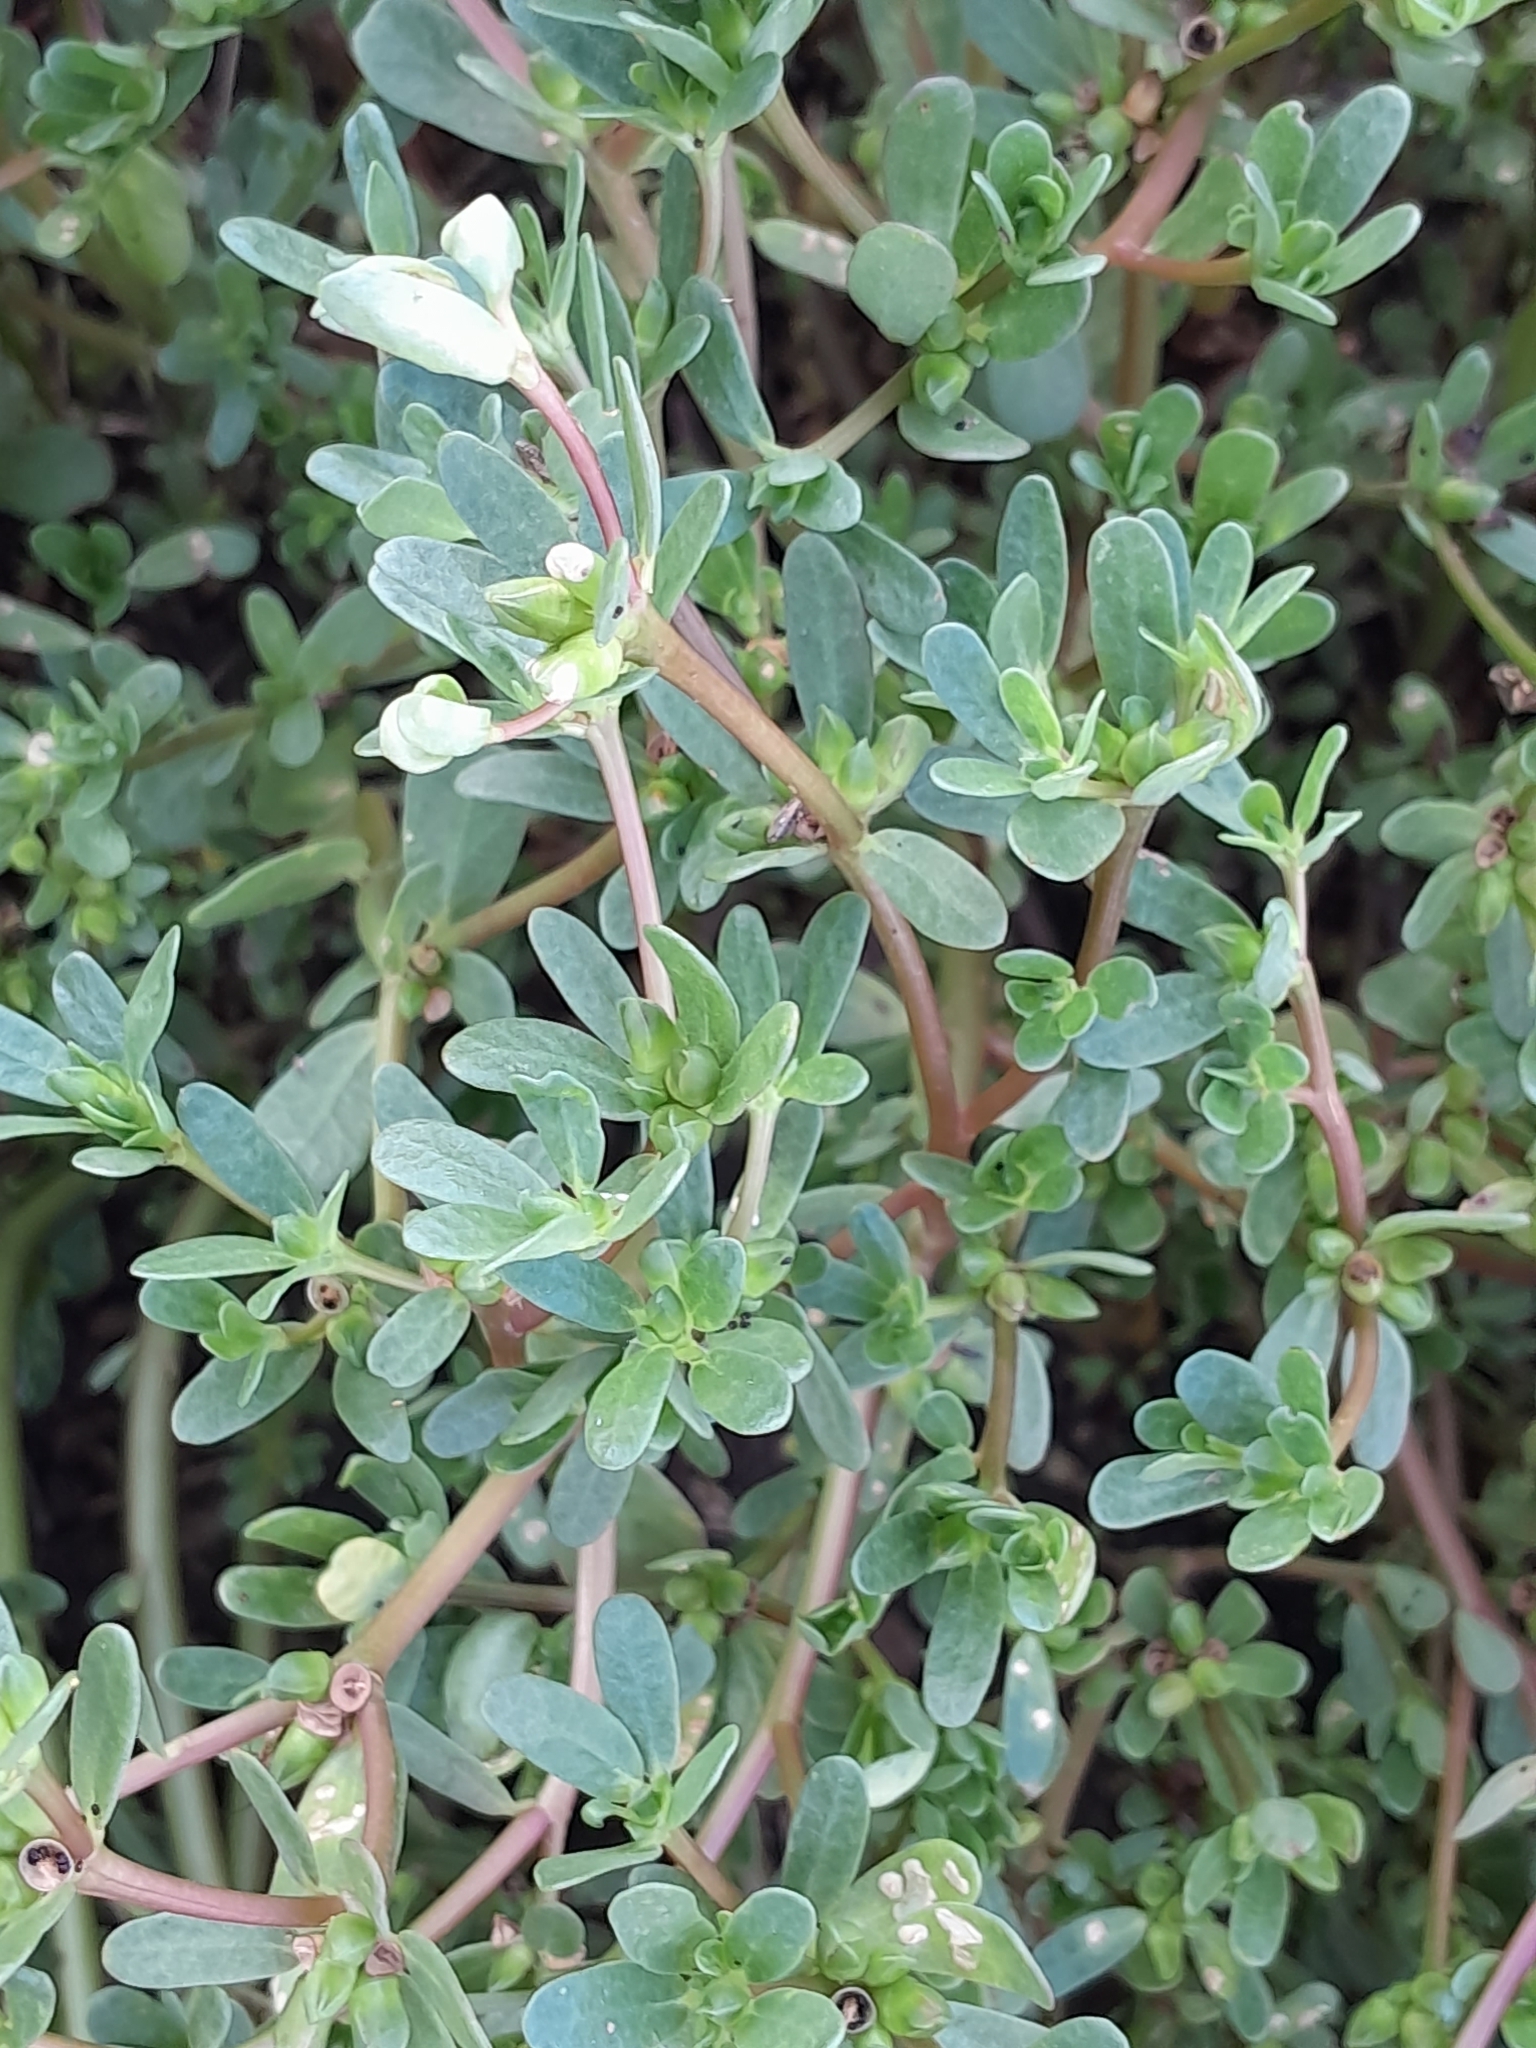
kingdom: Plantae
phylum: Tracheophyta
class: Magnoliopsida
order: Caryophyllales
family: Portulacaceae
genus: Portulaca
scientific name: Portulaca oleracea
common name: Common purslane
